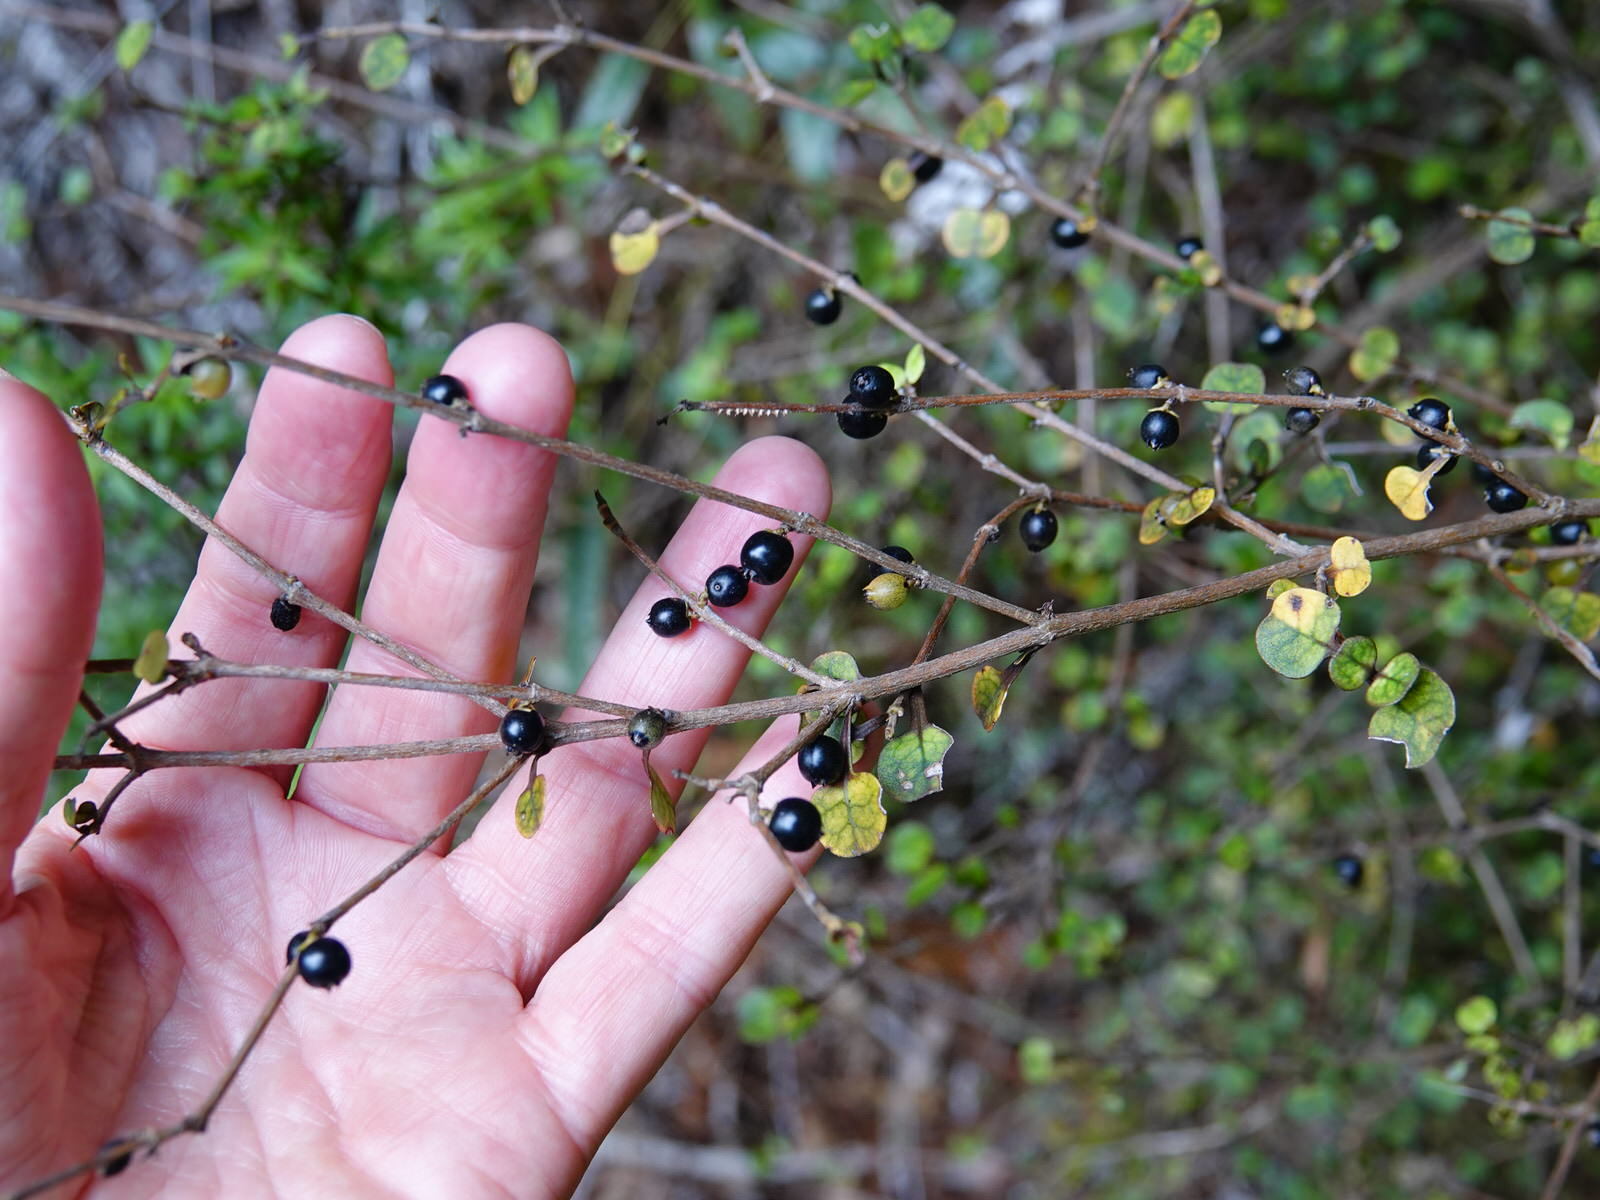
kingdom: Plantae
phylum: Tracheophyta
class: Magnoliopsida
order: Gentianales
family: Rubiaceae
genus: Coprosma
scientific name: Coprosma spathulata
